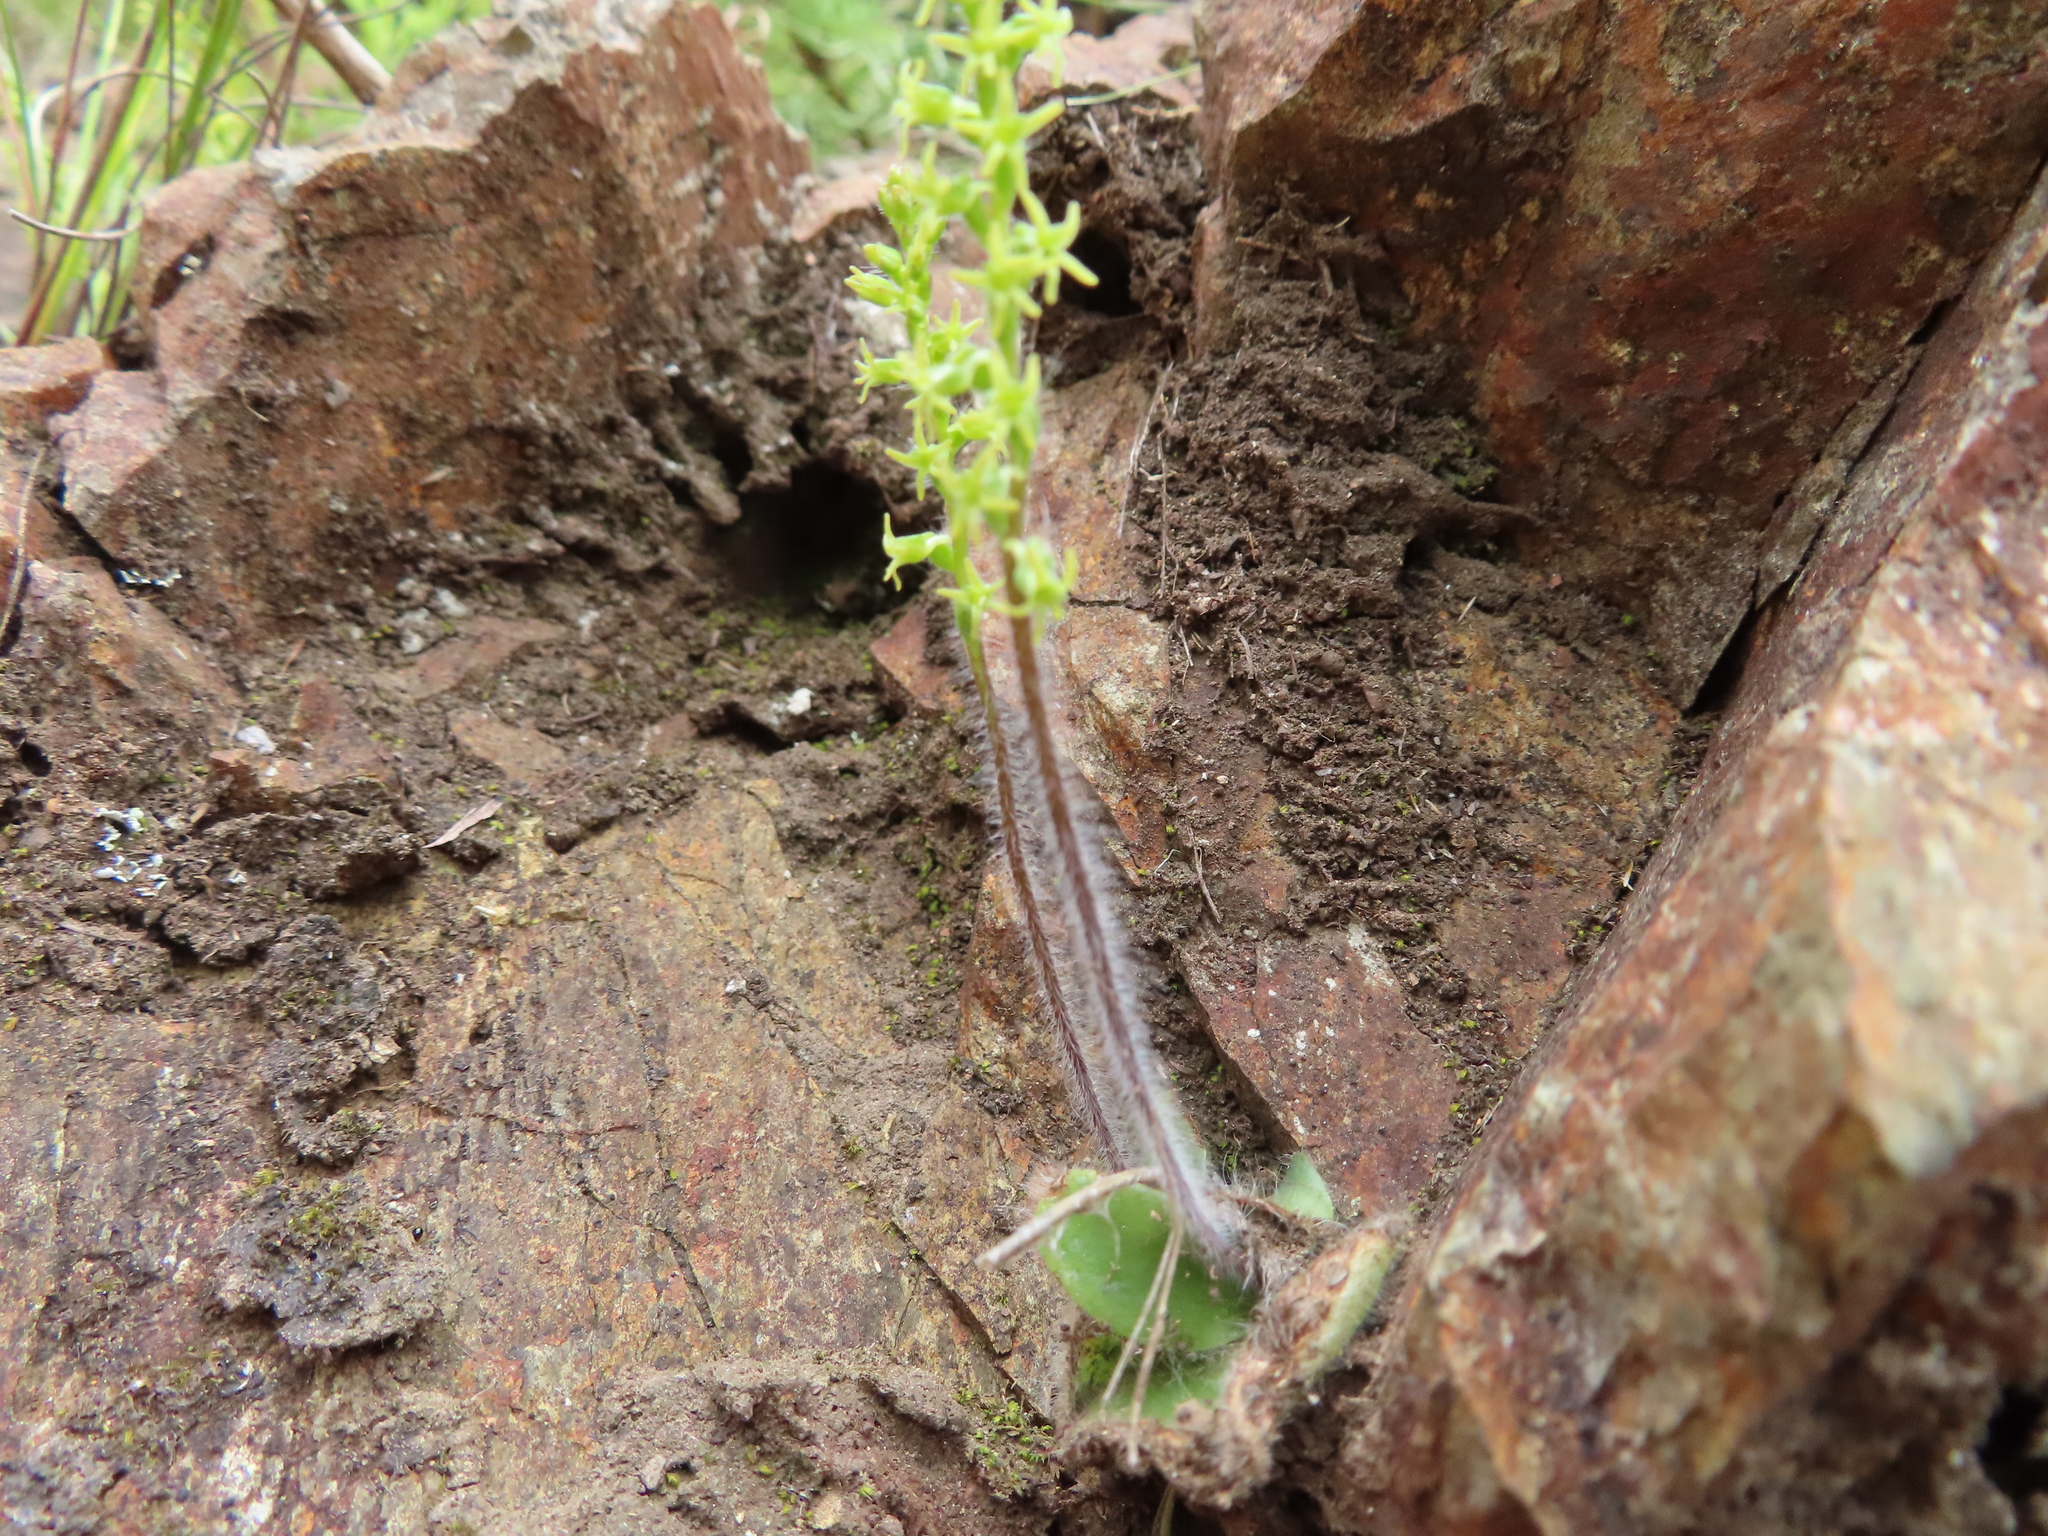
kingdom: Plantae
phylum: Tracheophyta
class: Liliopsida
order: Asparagales
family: Orchidaceae
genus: Holothrix
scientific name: Holothrix condensata
